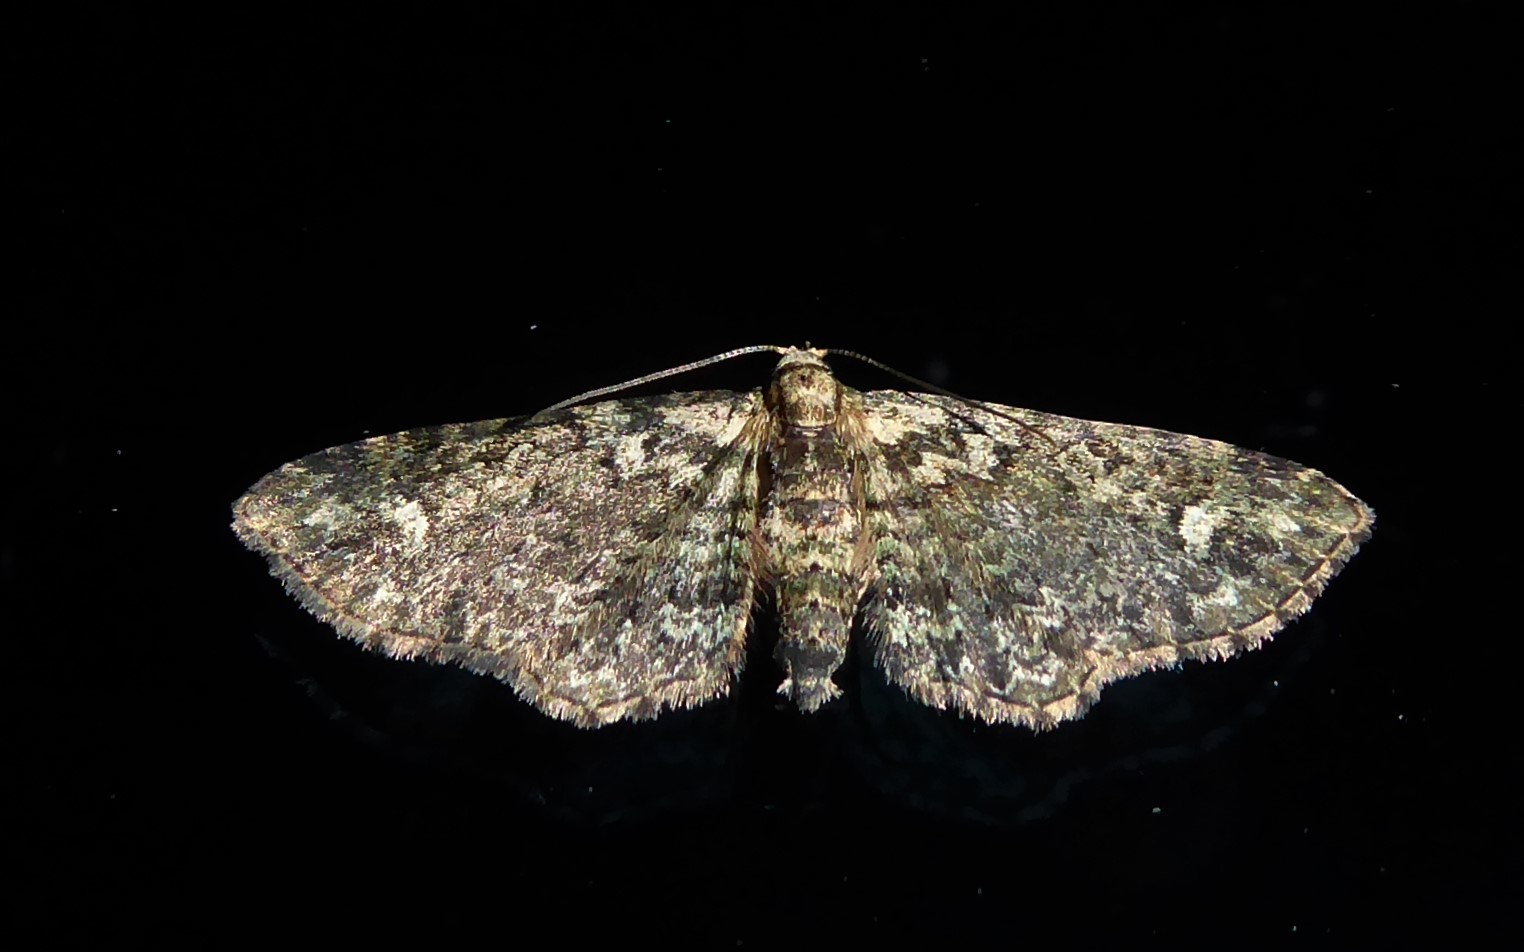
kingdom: Animalia
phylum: Arthropoda
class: Insecta
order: Lepidoptera
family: Geometridae
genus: Pasiphilodes
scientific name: Pasiphilodes testulata
